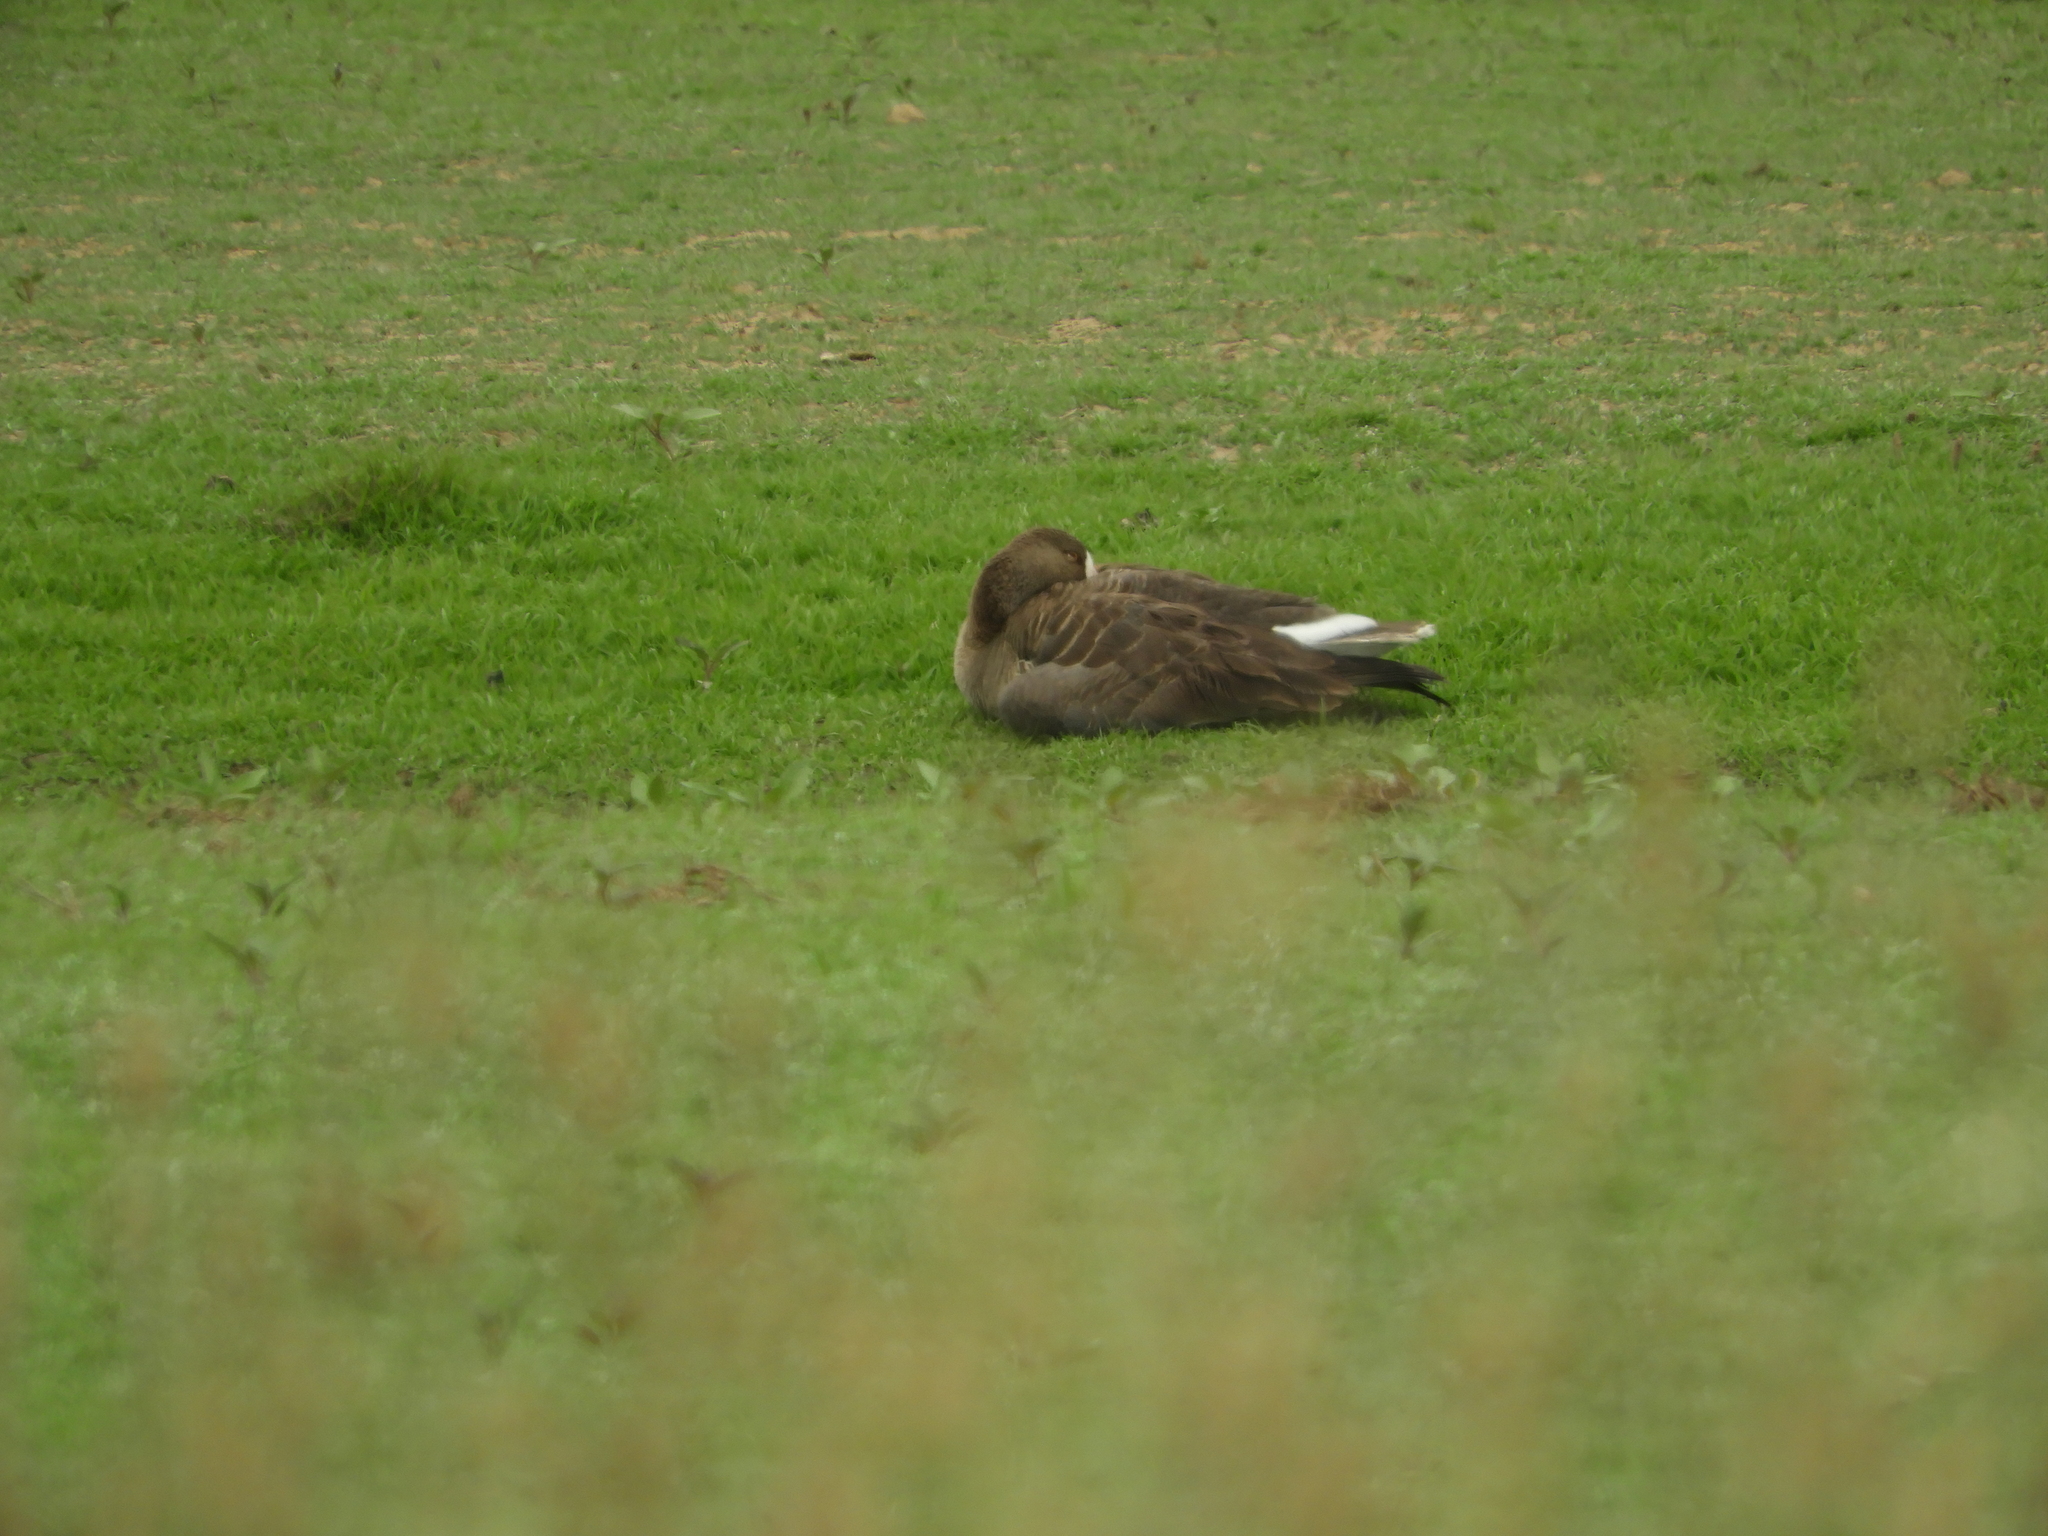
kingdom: Animalia
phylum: Chordata
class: Aves
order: Anseriformes
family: Anatidae
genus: Anser
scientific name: Anser albifrons
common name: Greater white-fronted goose
